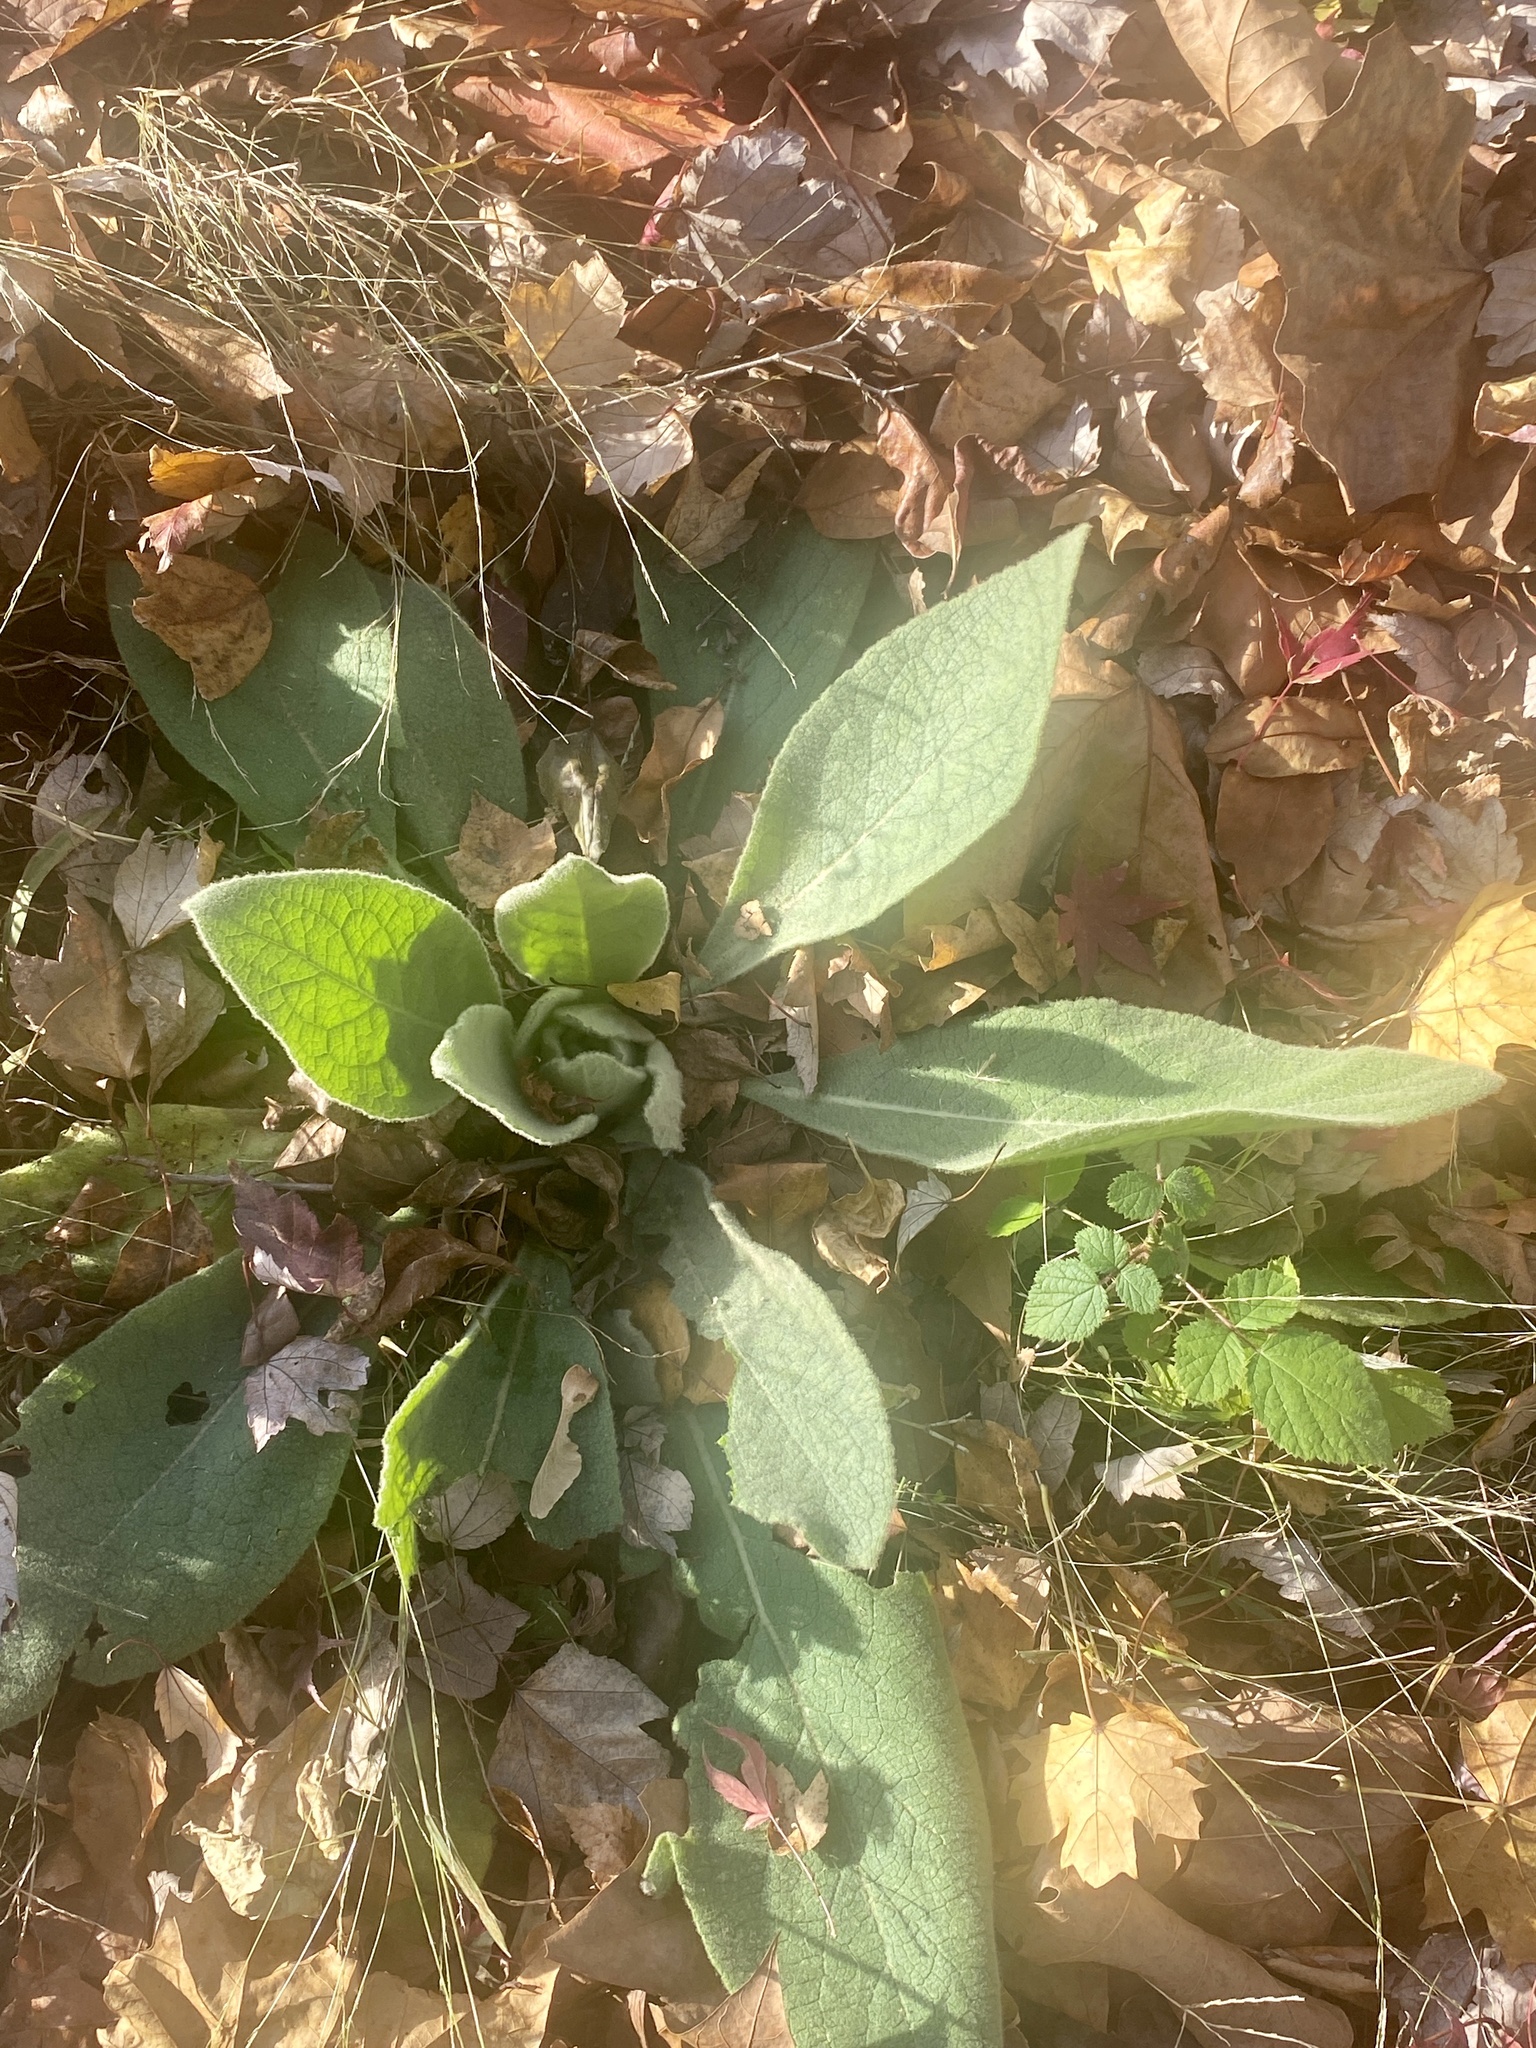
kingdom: Plantae
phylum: Tracheophyta
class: Magnoliopsida
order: Lamiales
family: Scrophulariaceae
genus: Verbascum
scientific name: Verbascum thapsus
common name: Common mullein
